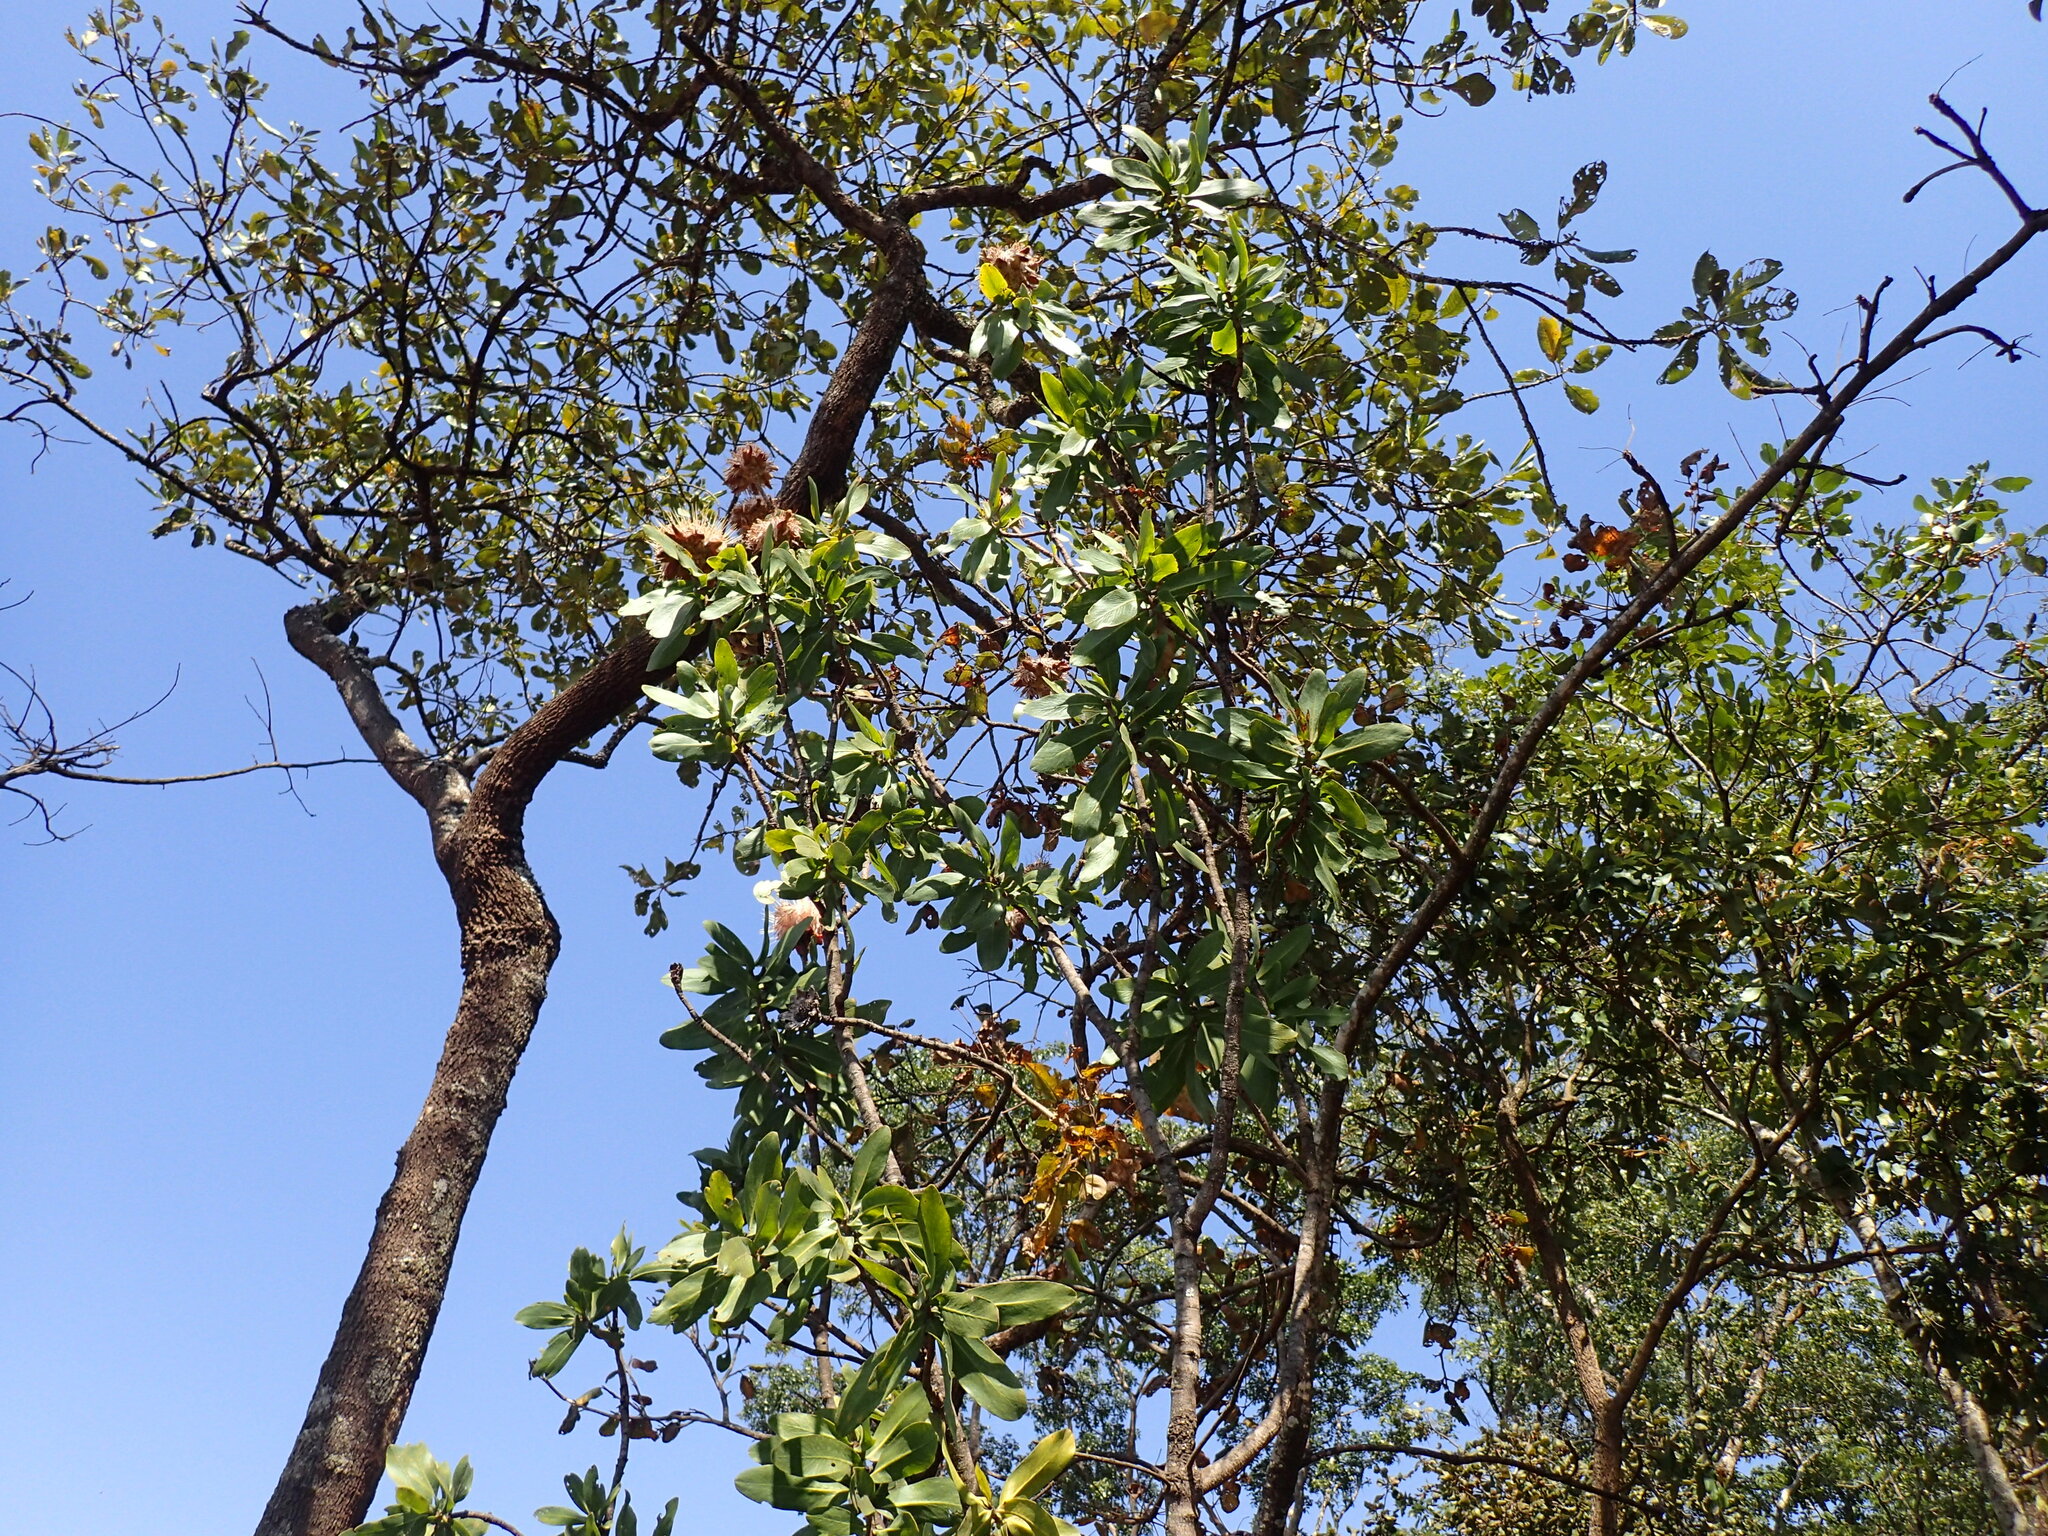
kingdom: Plantae
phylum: Tracheophyta
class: Magnoliopsida
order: Proteales
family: Proteaceae
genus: Protea
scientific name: Protea angolensis
